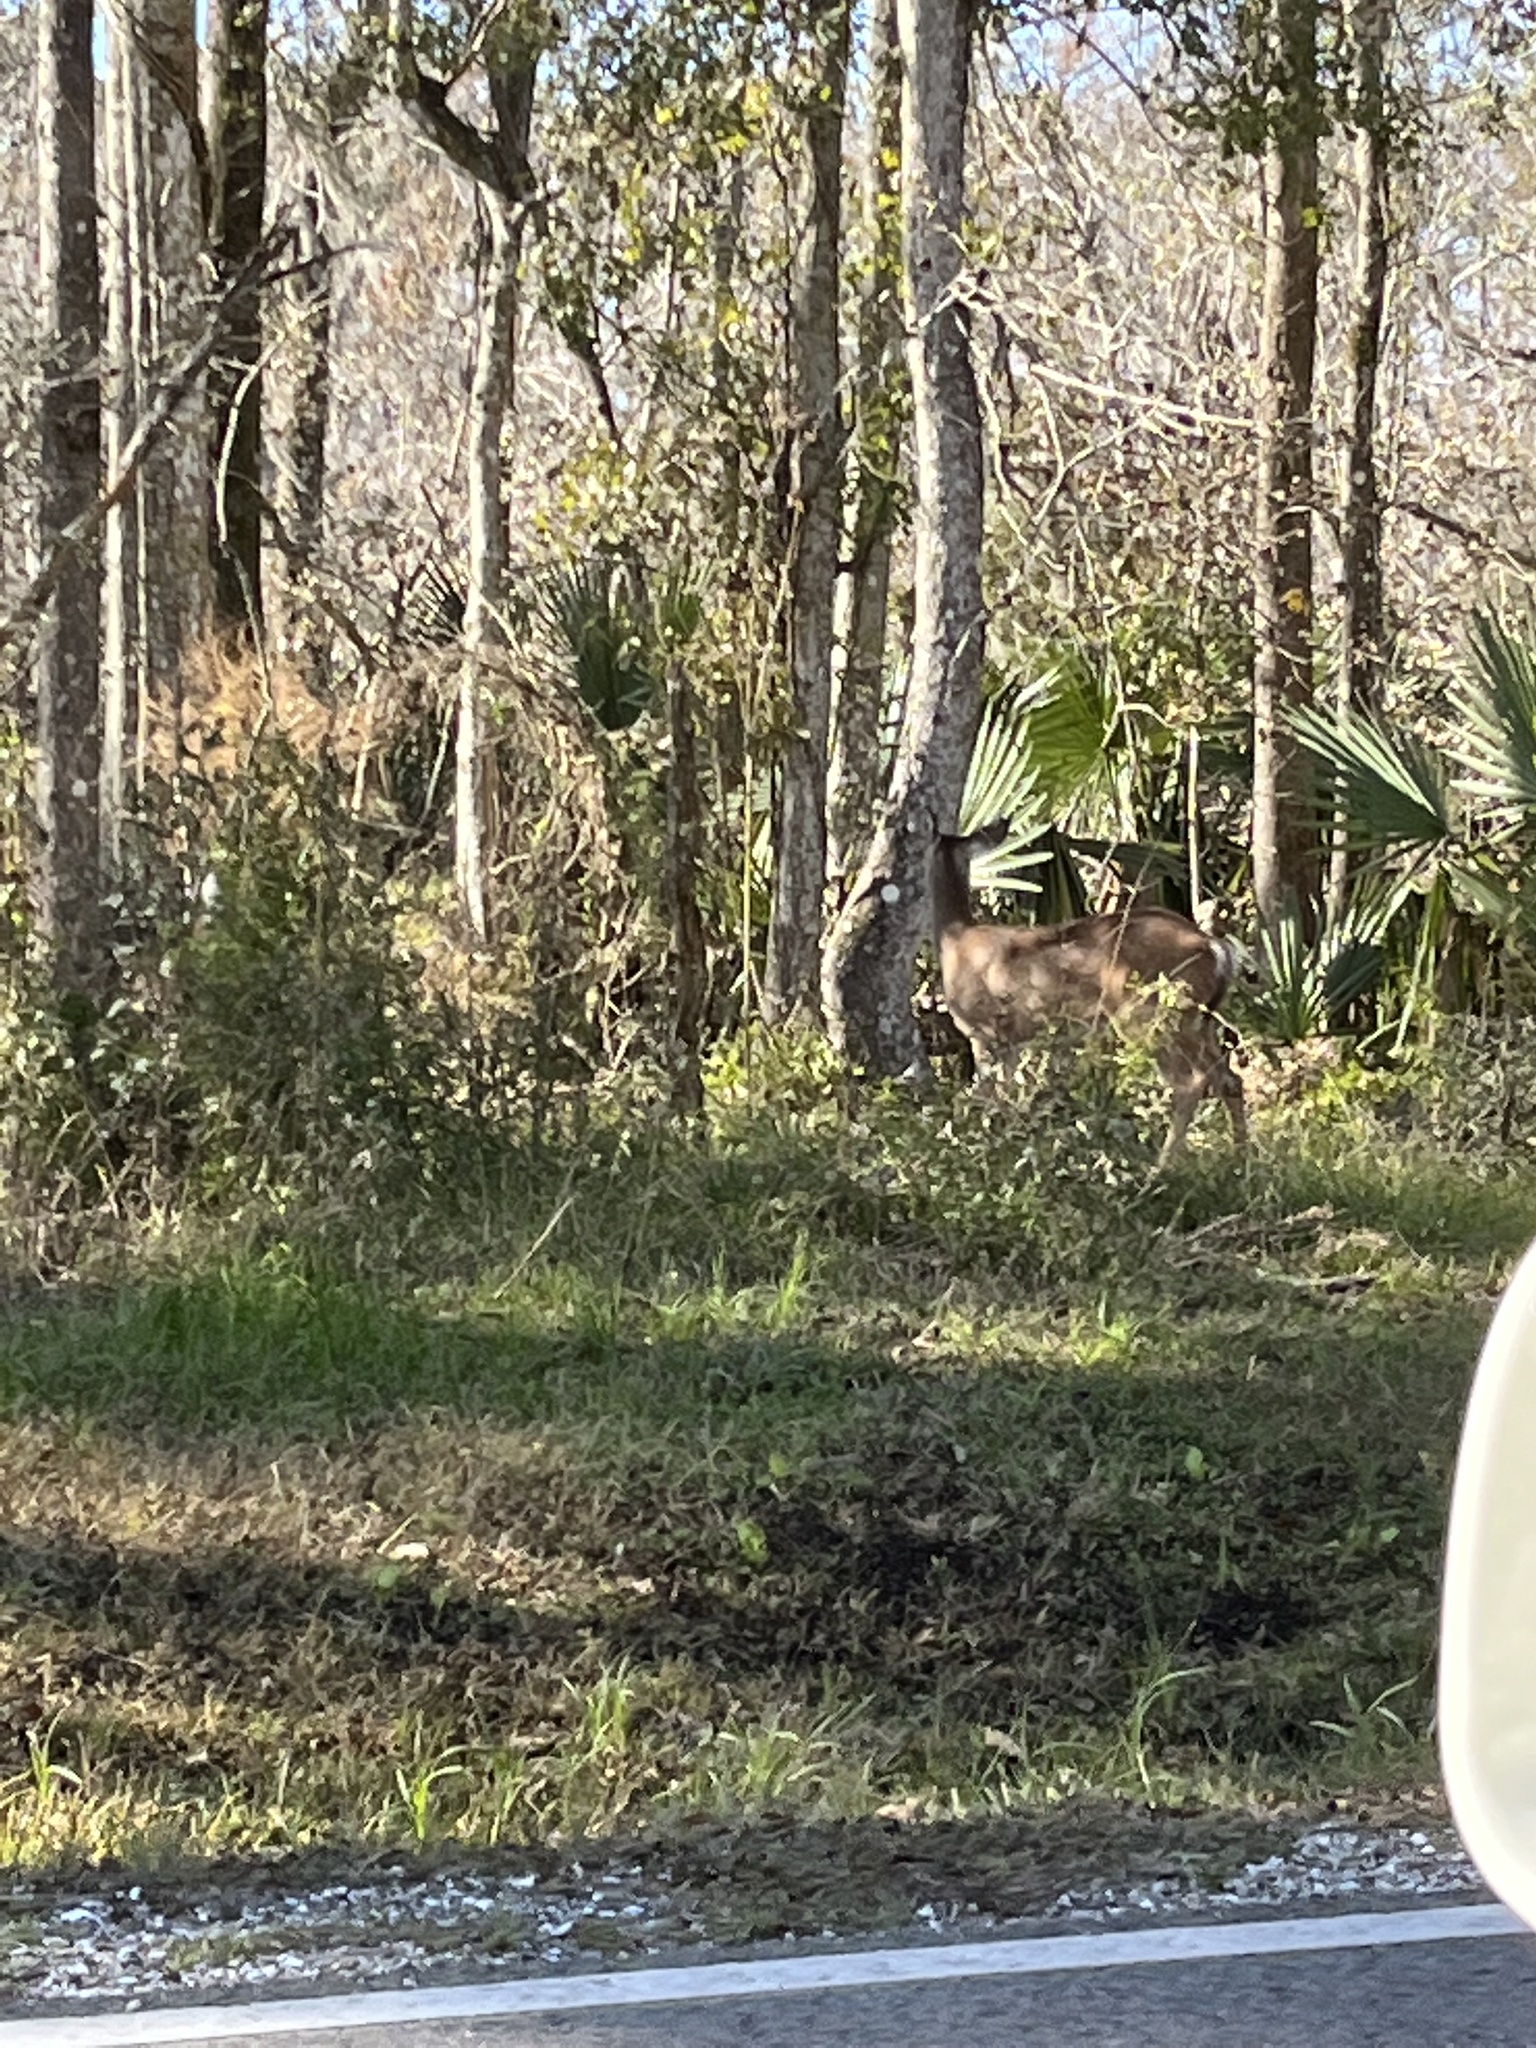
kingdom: Animalia
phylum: Chordata
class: Mammalia
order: Artiodactyla
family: Cervidae
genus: Odocoileus
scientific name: Odocoileus virginianus
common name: White-tailed deer
